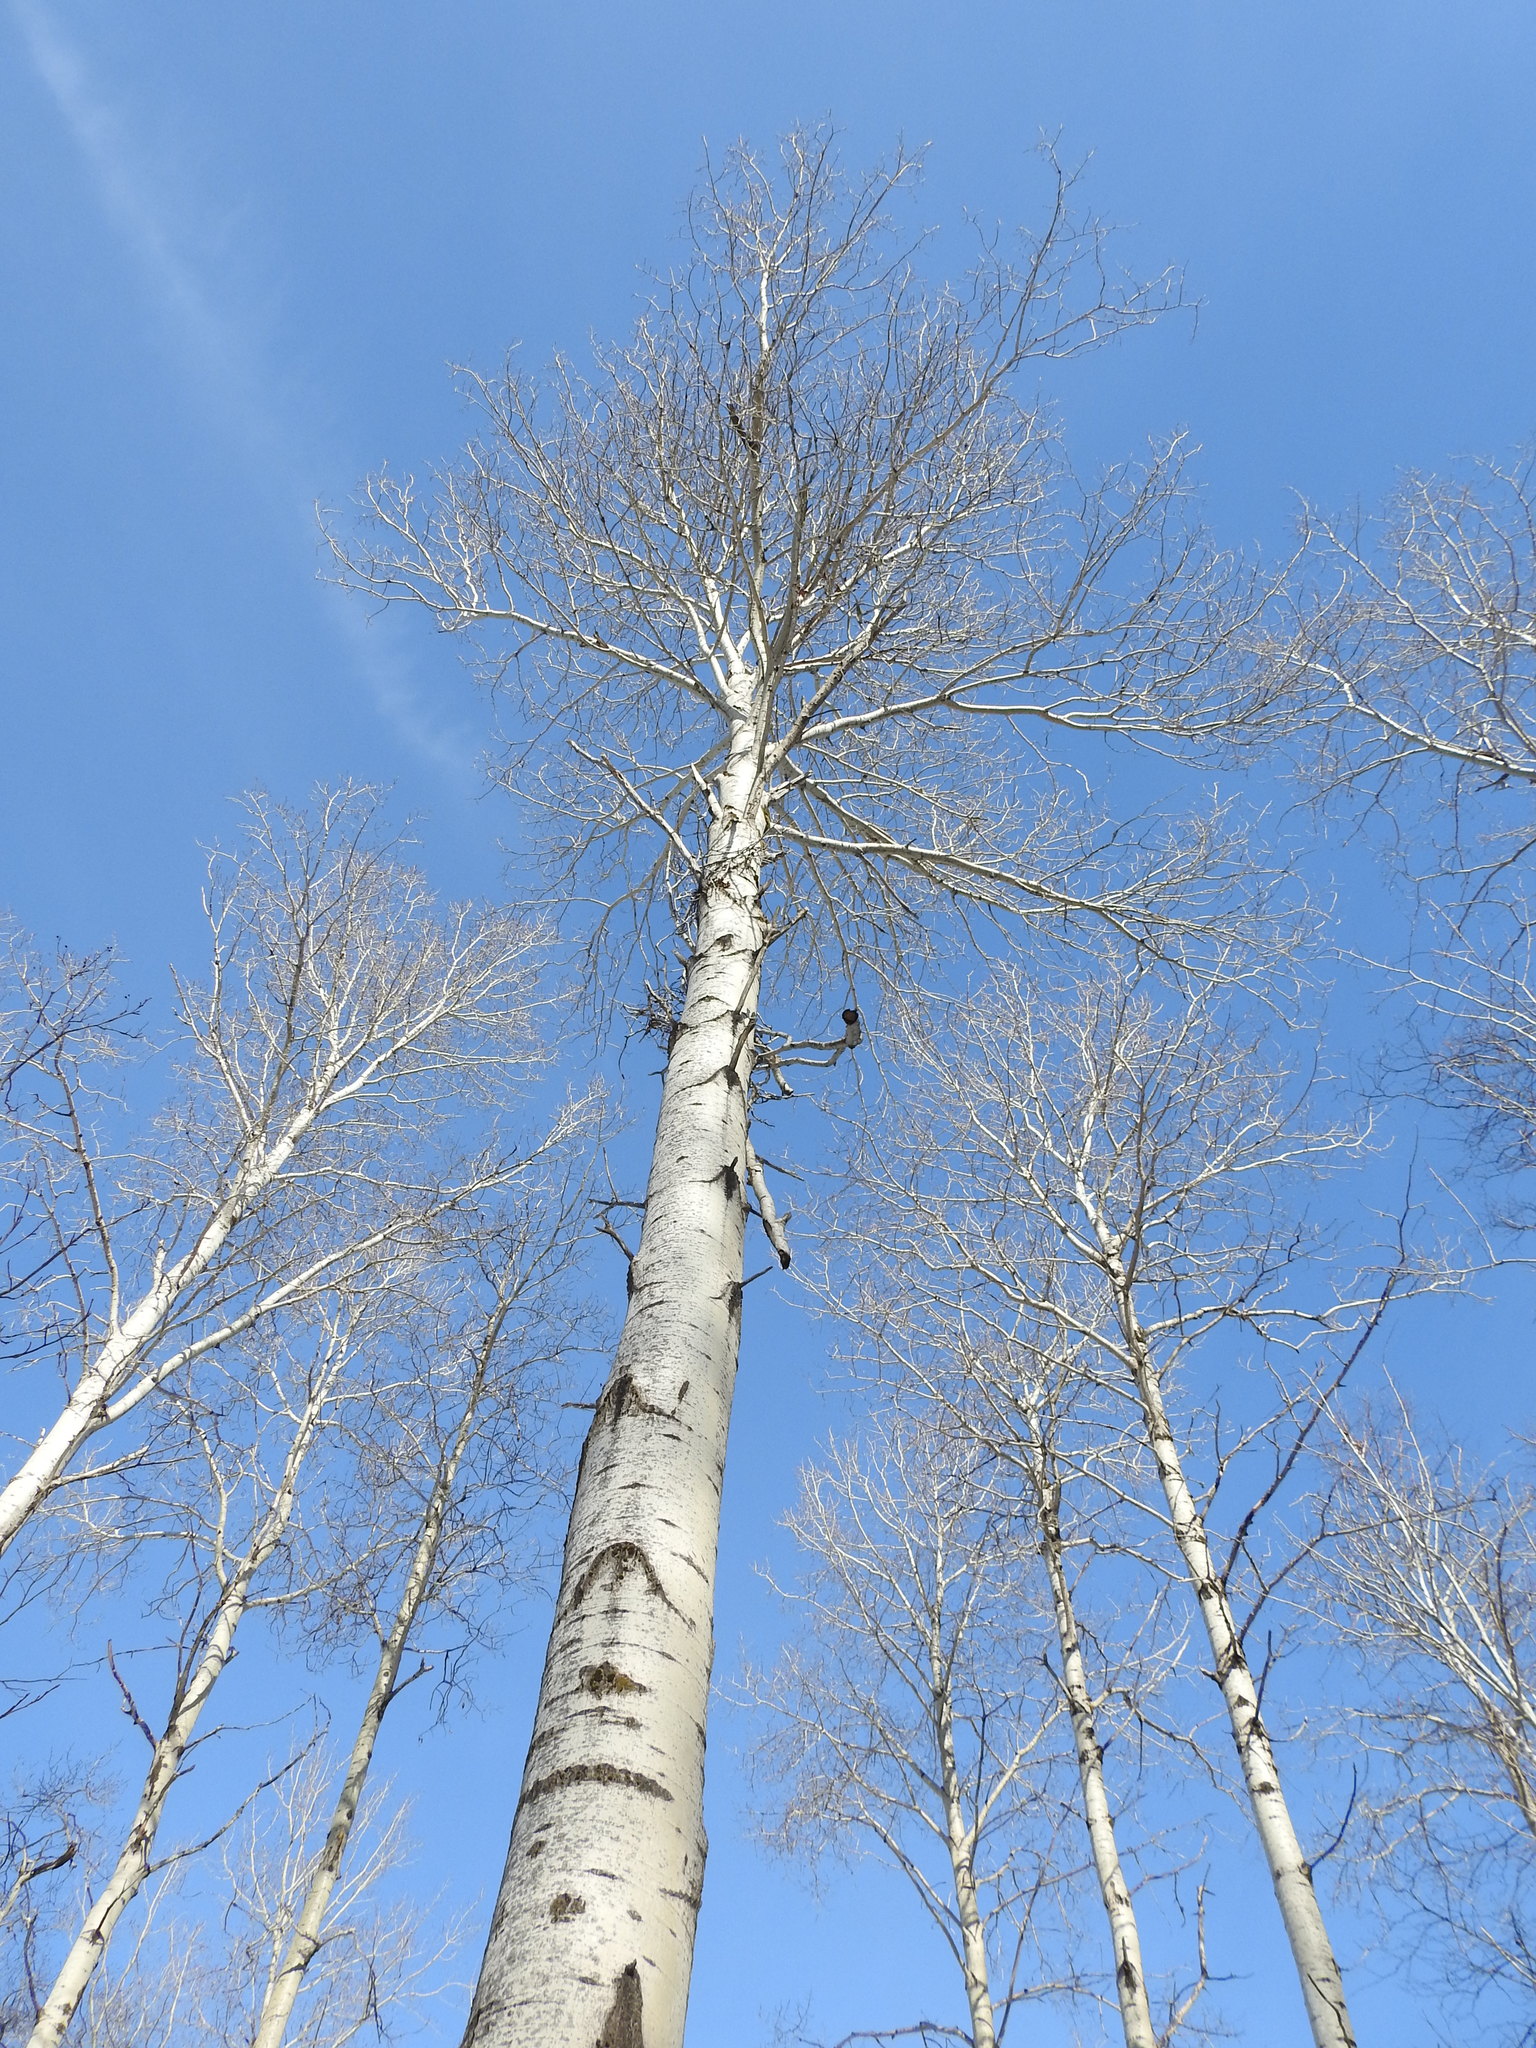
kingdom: Plantae
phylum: Tracheophyta
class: Magnoliopsida
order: Malpighiales
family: Salicaceae
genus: Populus
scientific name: Populus tremuloides
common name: Quaking aspen
